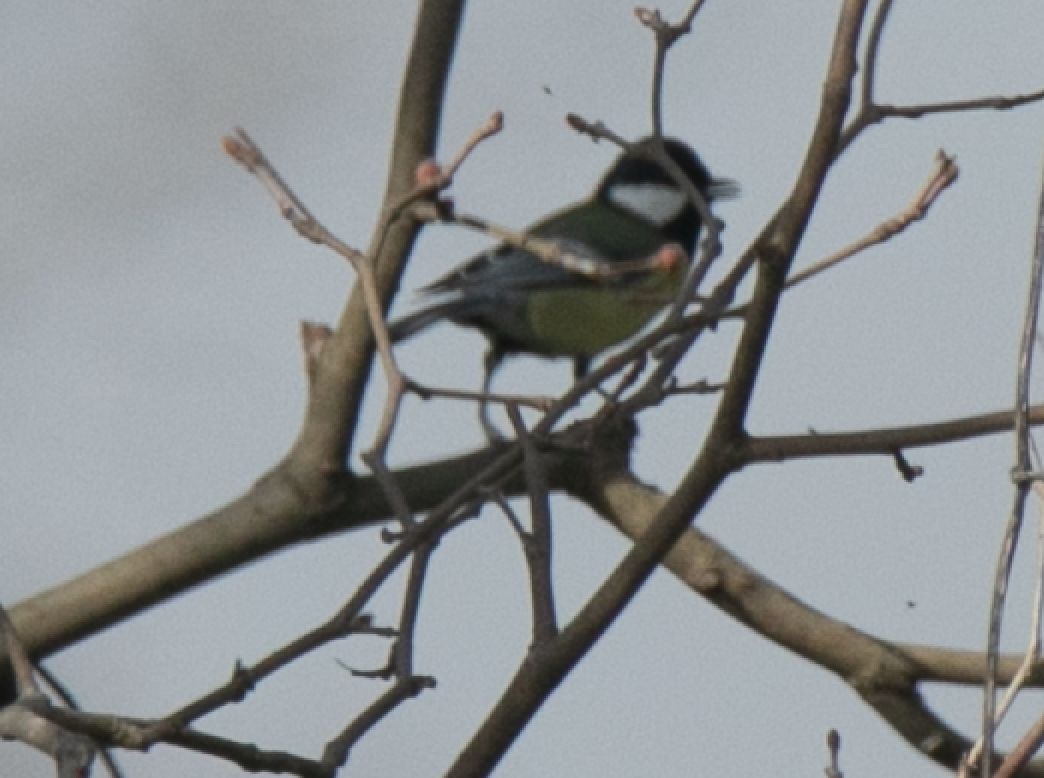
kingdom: Animalia
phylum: Chordata
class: Aves
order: Passeriformes
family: Paridae
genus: Parus
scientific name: Parus major
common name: Great tit
